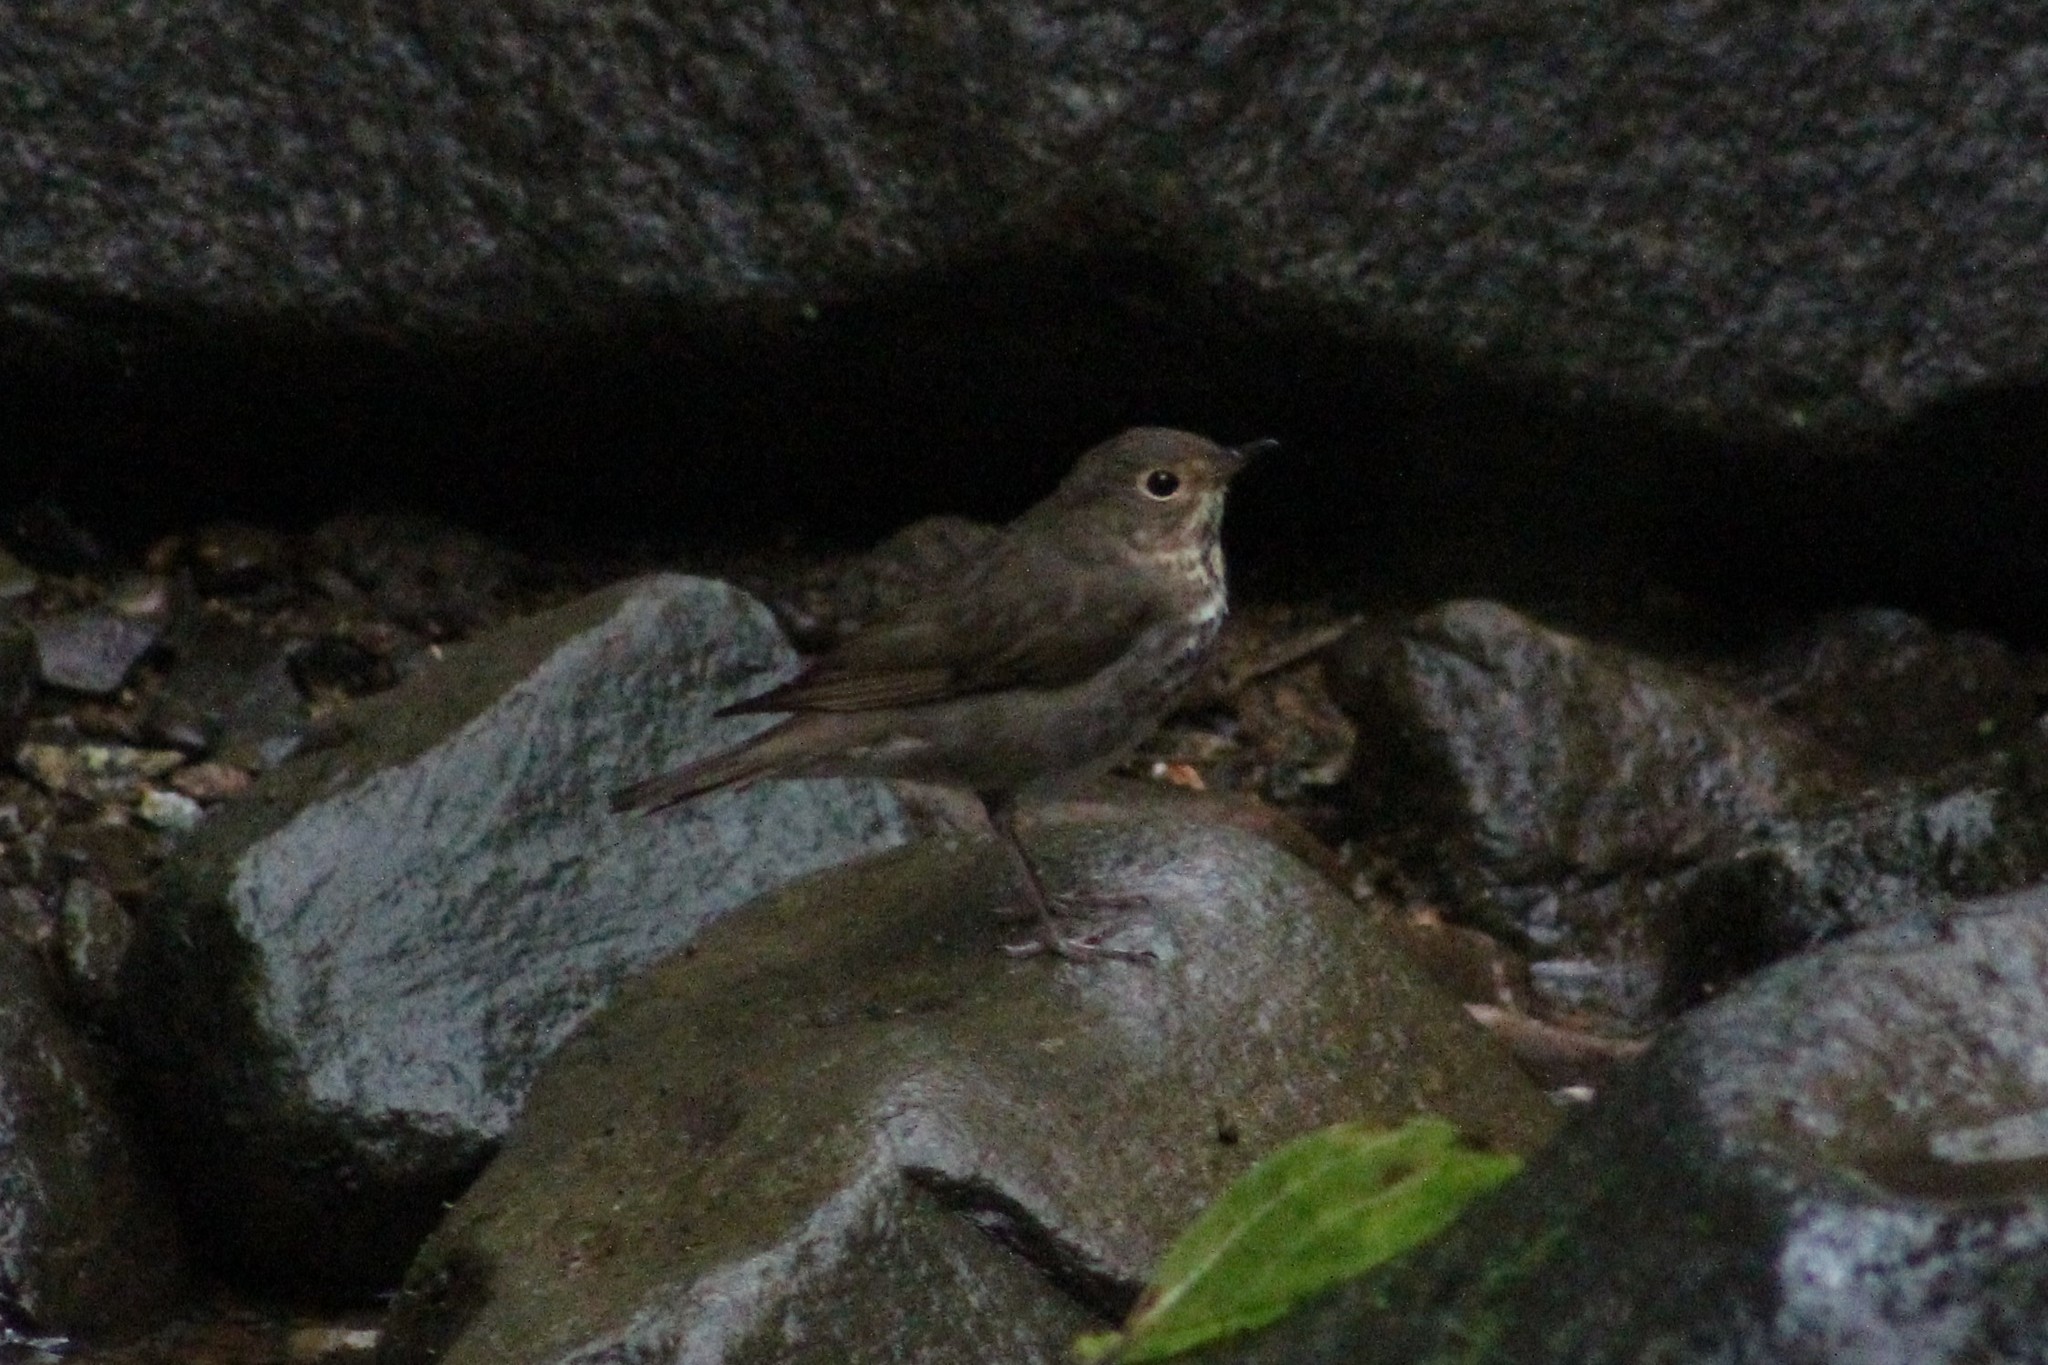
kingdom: Animalia
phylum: Chordata
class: Aves
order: Passeriformes
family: Turdidae
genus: Catharus
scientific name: Catharus ustulatus
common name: Swainson's thrush
